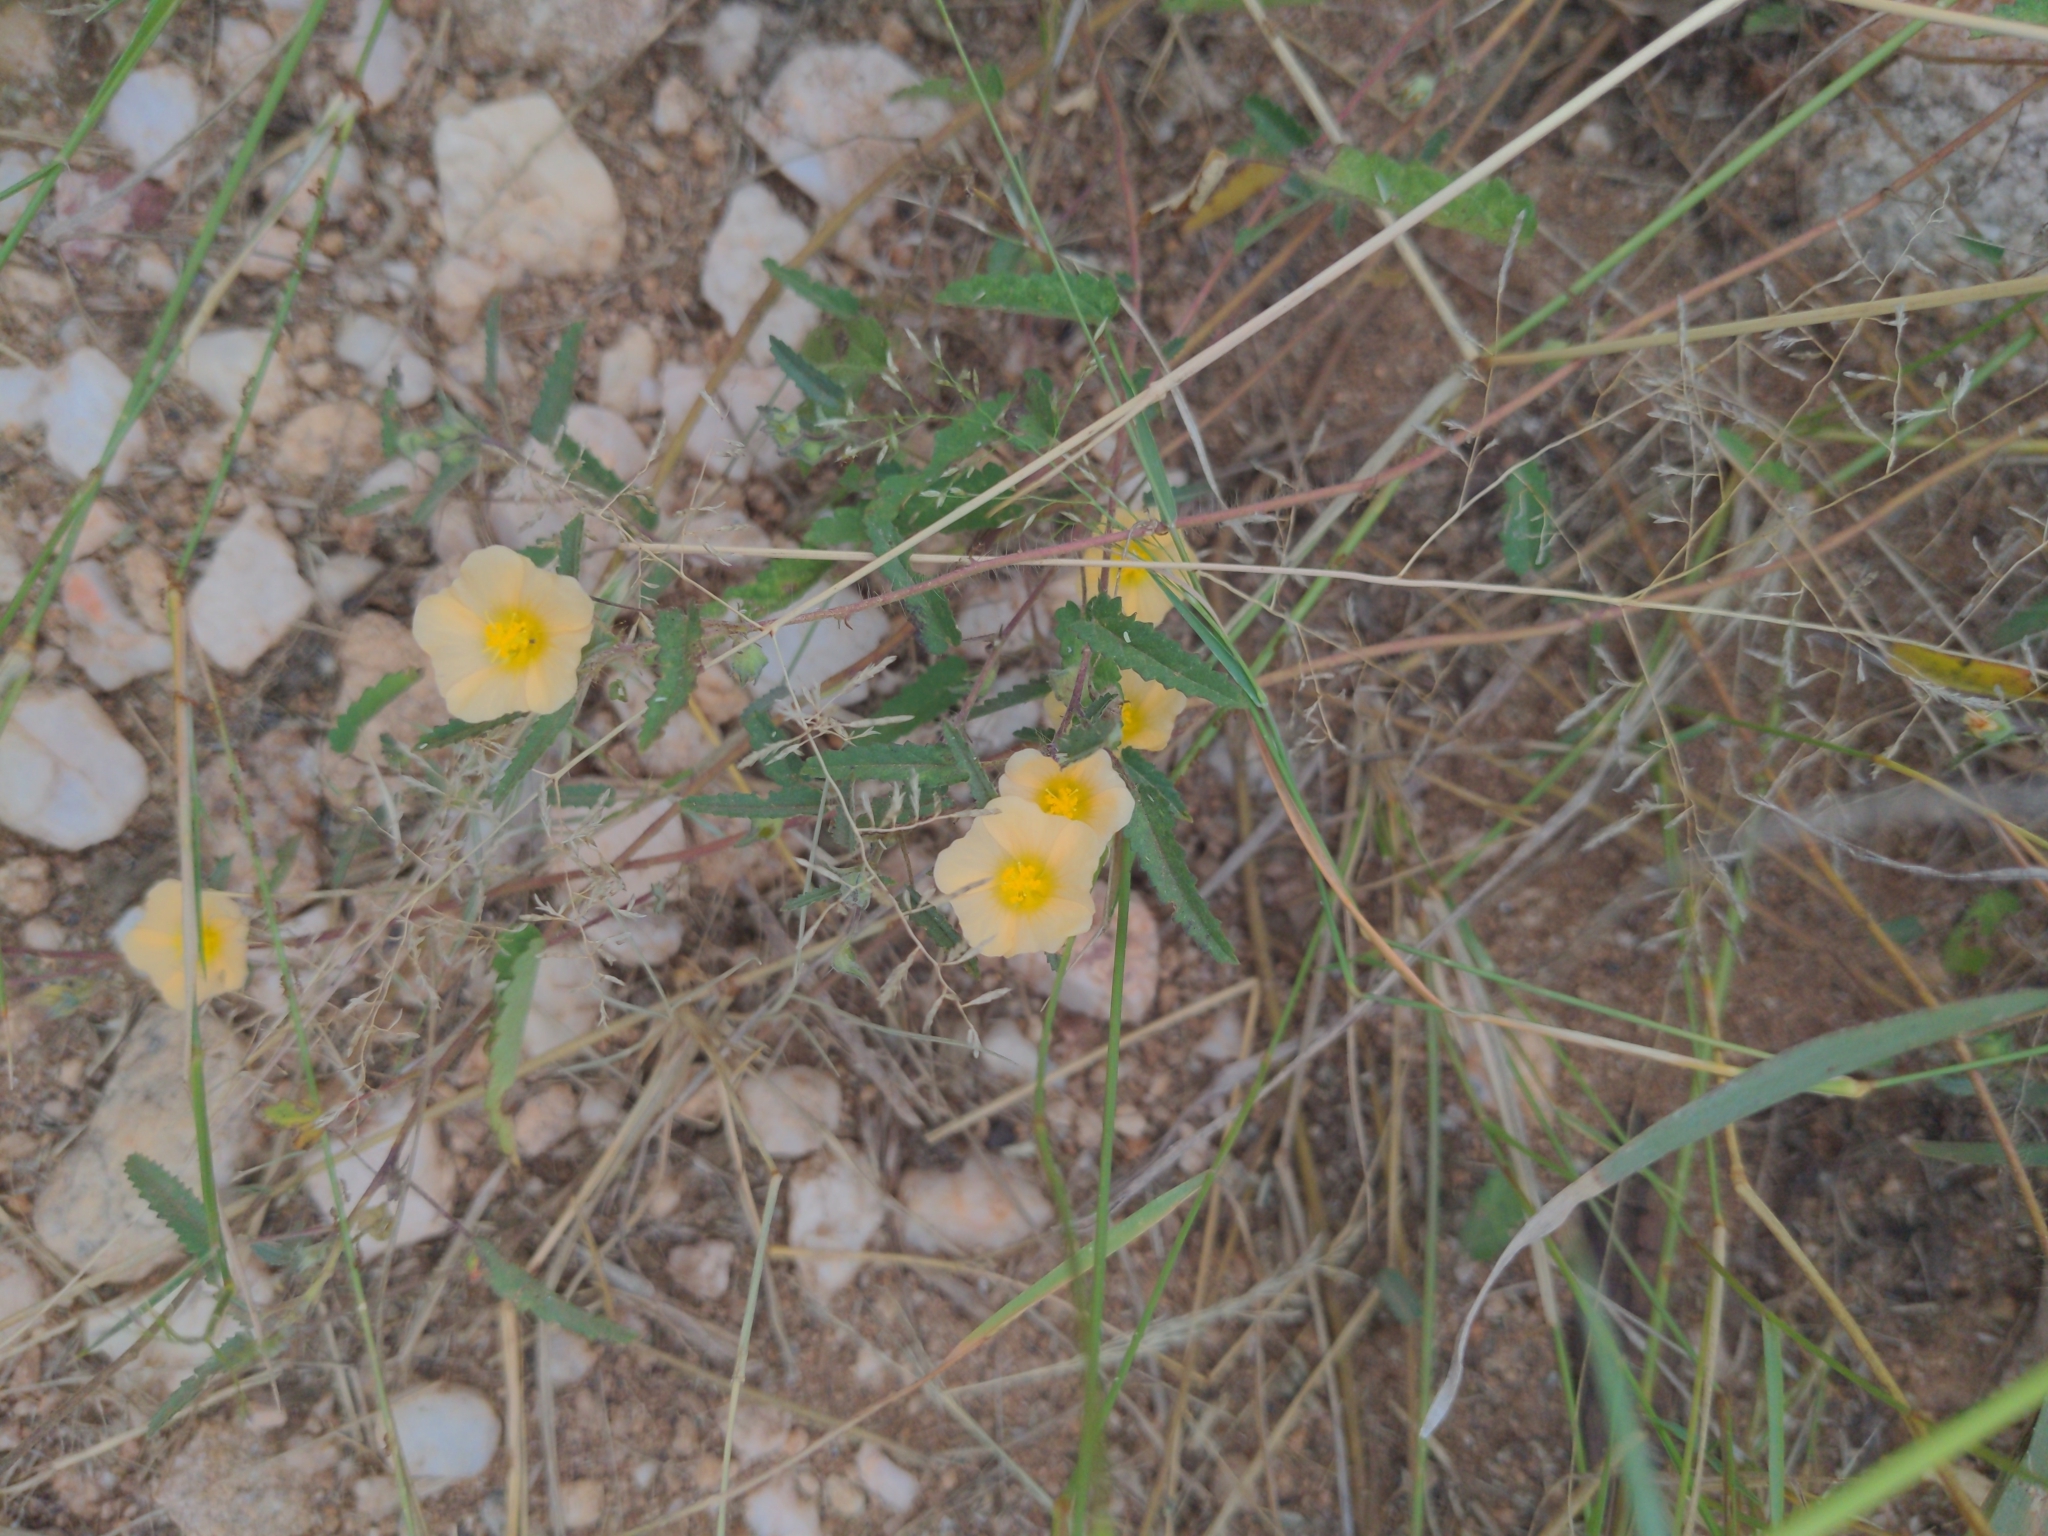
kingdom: Plantae
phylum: Tracheophyta
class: Magnoliopsida
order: Malvales
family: Malvaceae
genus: Sida
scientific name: Sida abutilifolia
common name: Spreading fanpetals
